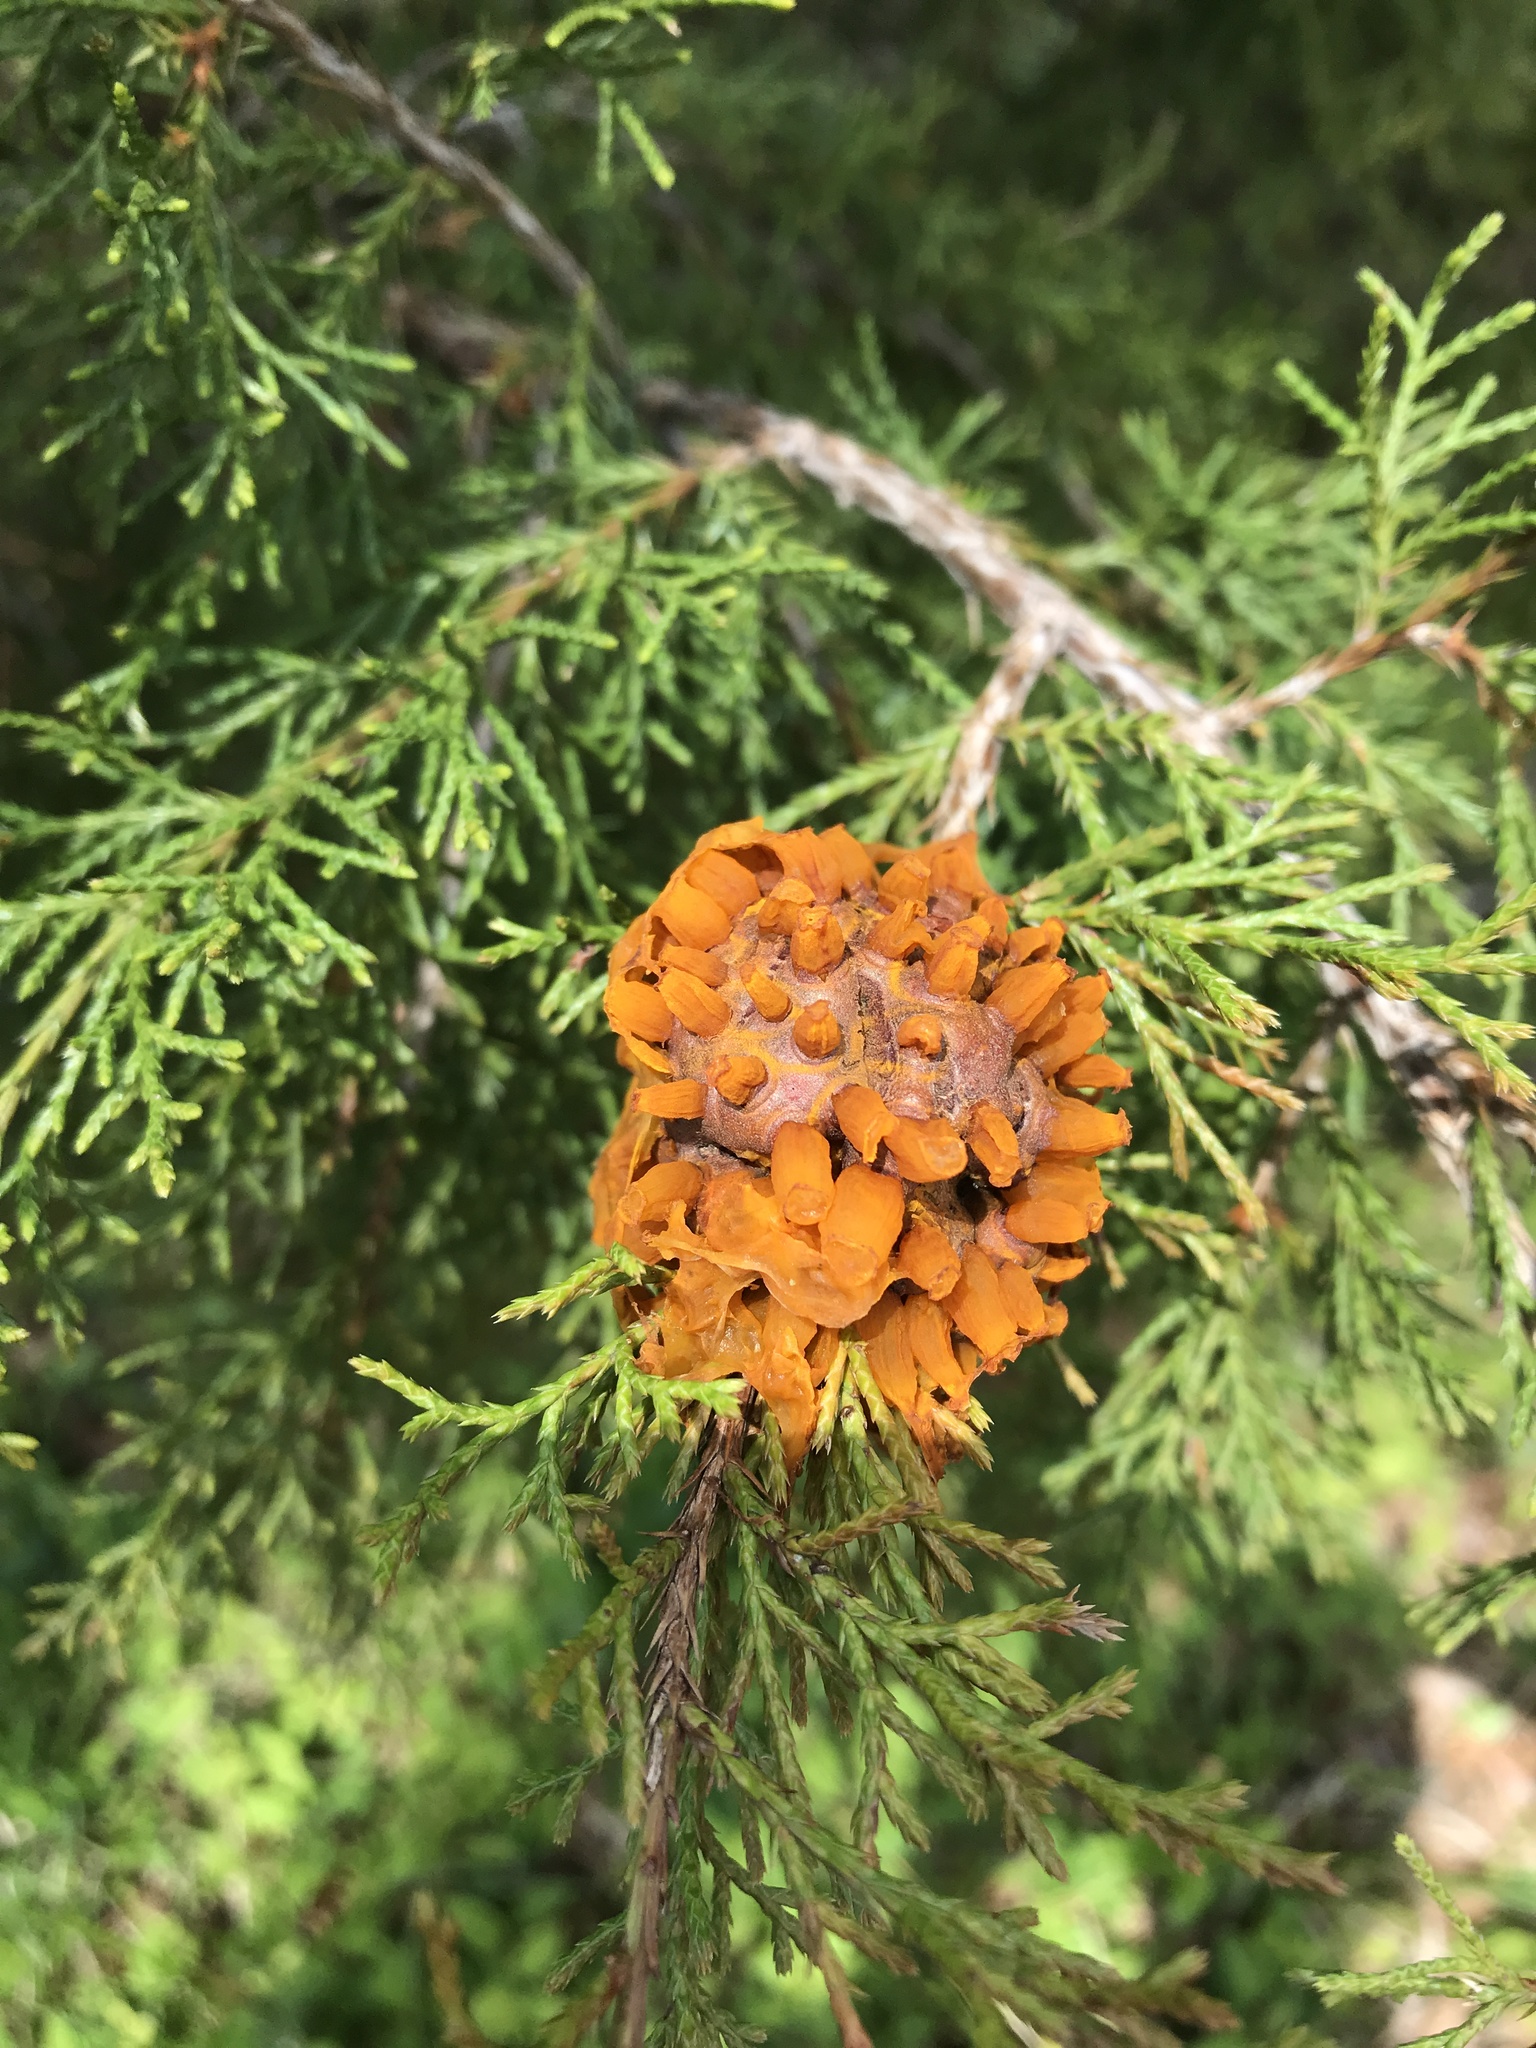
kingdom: Fungi
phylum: Basidiomycota
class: Pucciniomycetes
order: Pucciniales
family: Gymnosporangiaceae
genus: Gymnosporangium
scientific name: Gymnosporangium juniperi-virginianae
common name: Juniper-apple rust
